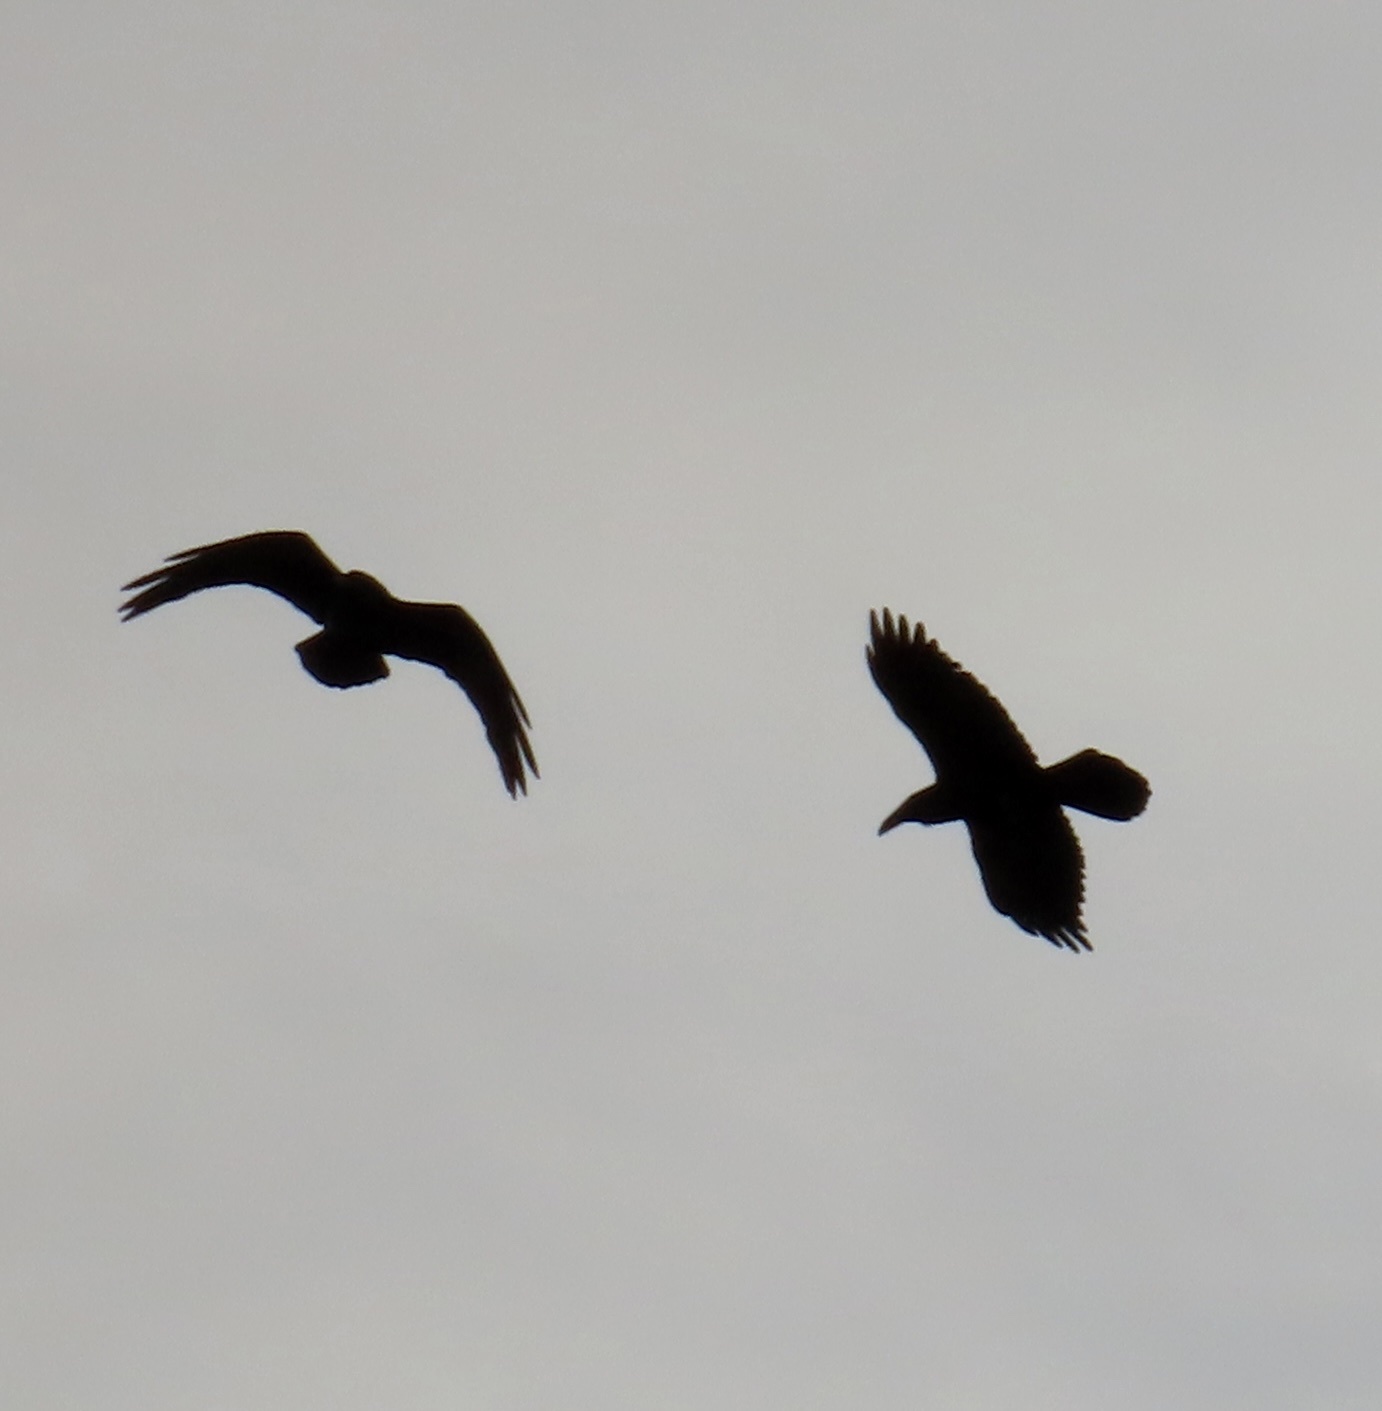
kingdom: Animalia
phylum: Chordata
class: Aves
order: Passeriformes
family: Corvidae
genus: Corvus
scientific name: Corvus corax
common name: Common raven
